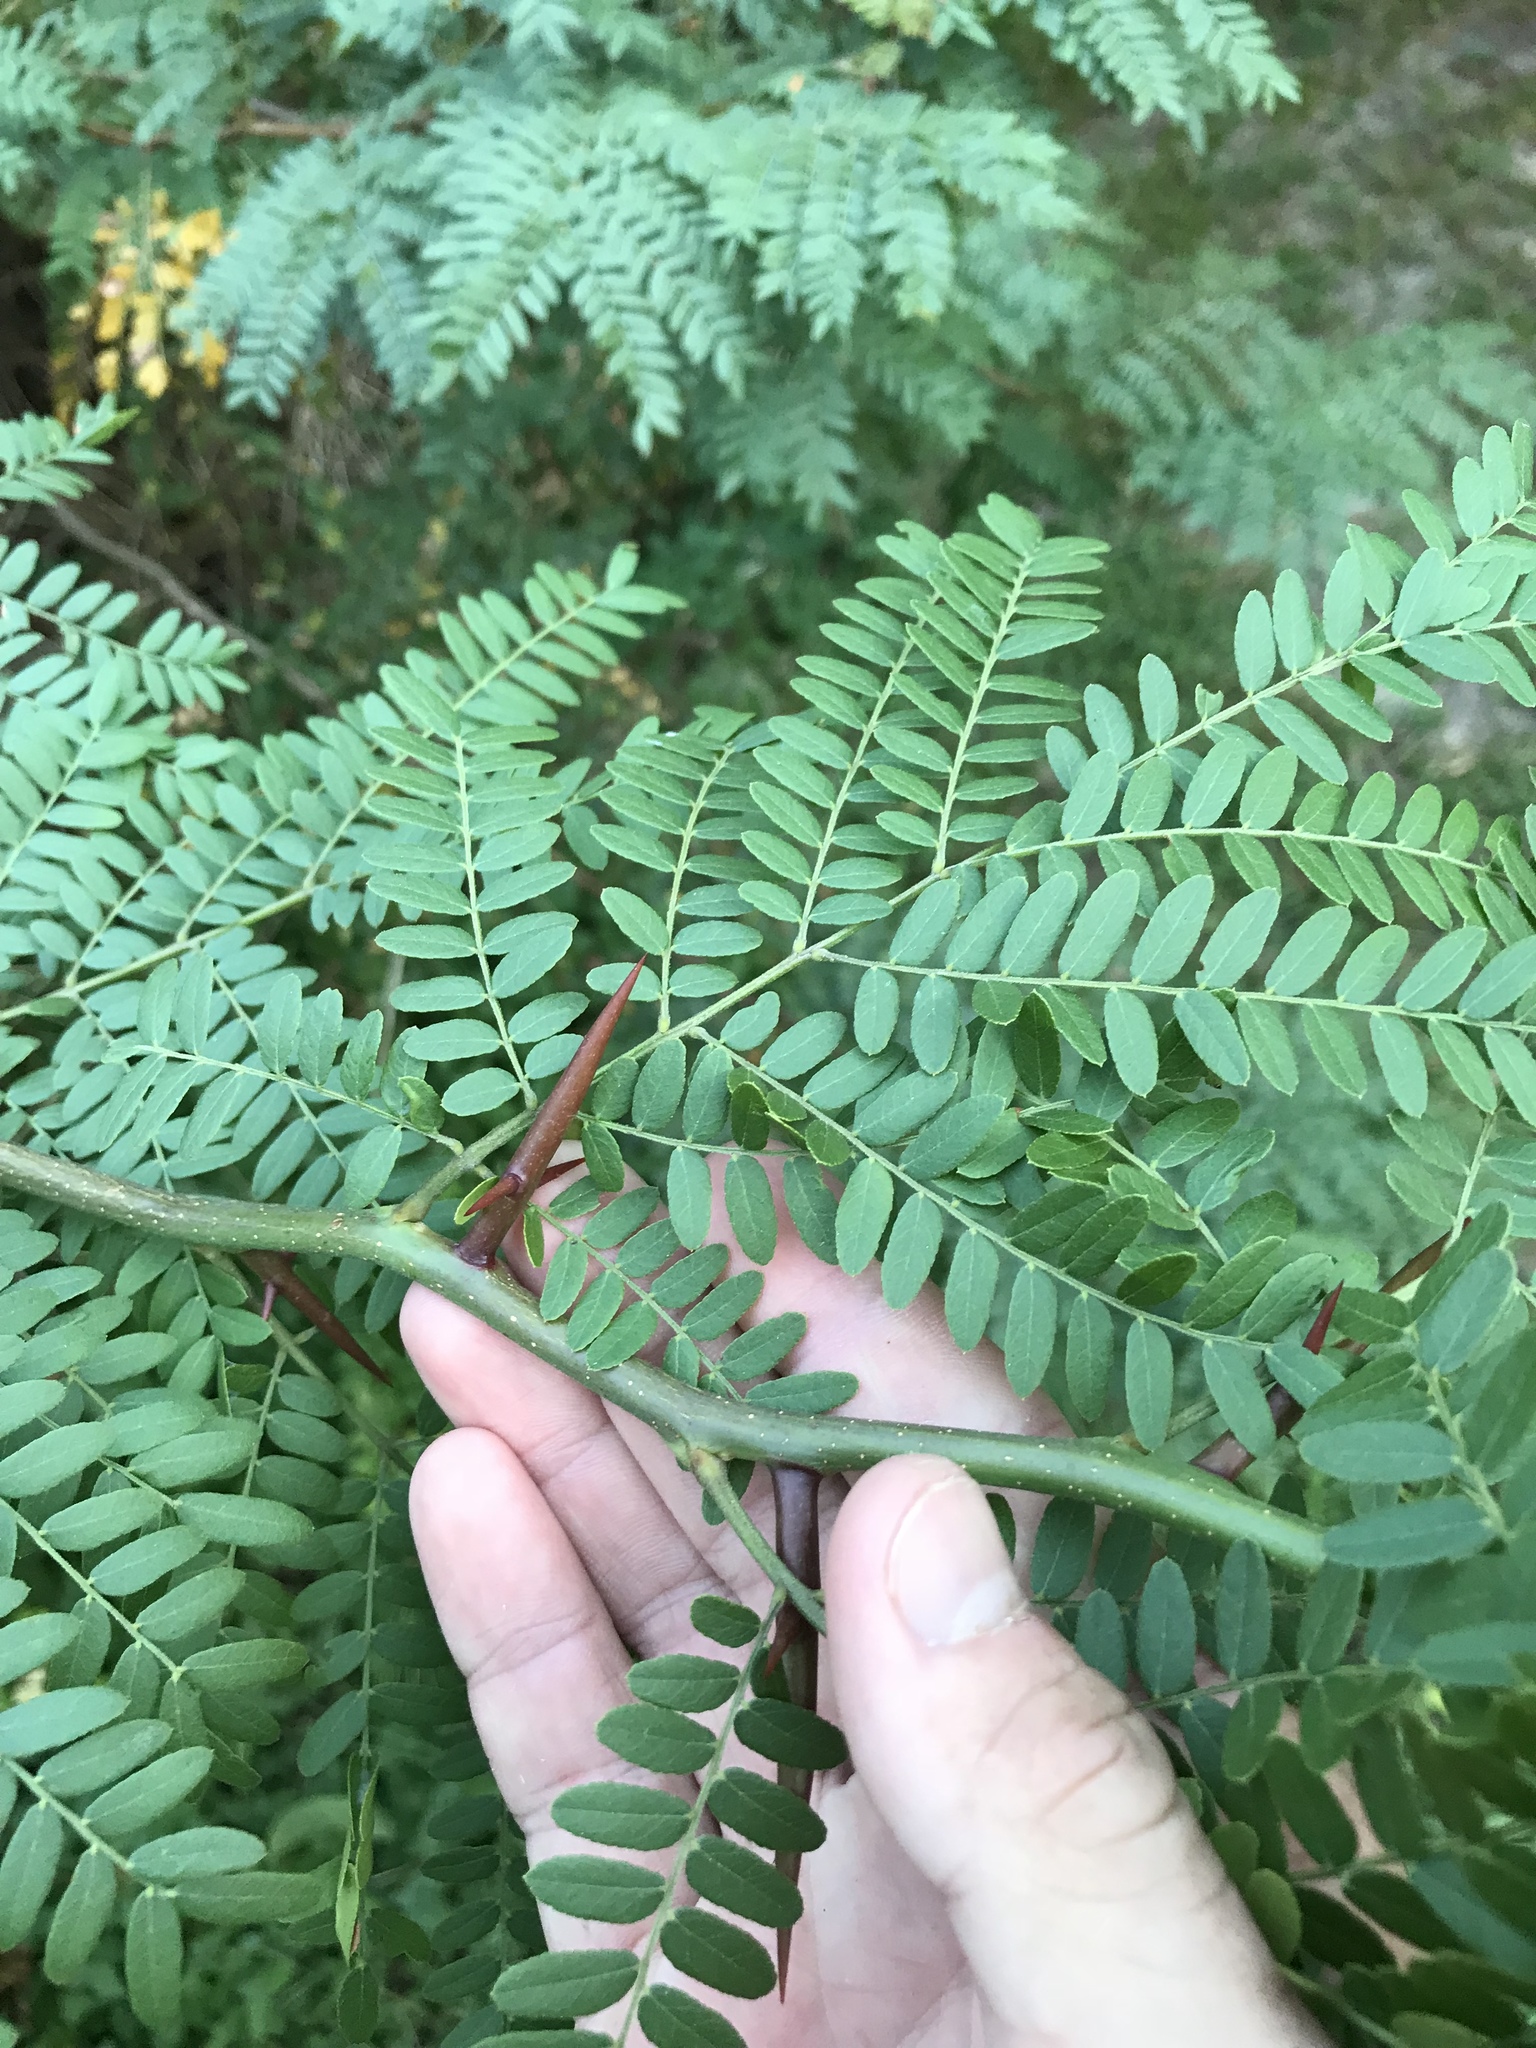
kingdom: Plantae
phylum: Tracheophyta
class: Magnoliopsida
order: Fabales
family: Fabaceae
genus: Gleditsia
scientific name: Gleditsia triacanthos
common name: Common honeylocust
